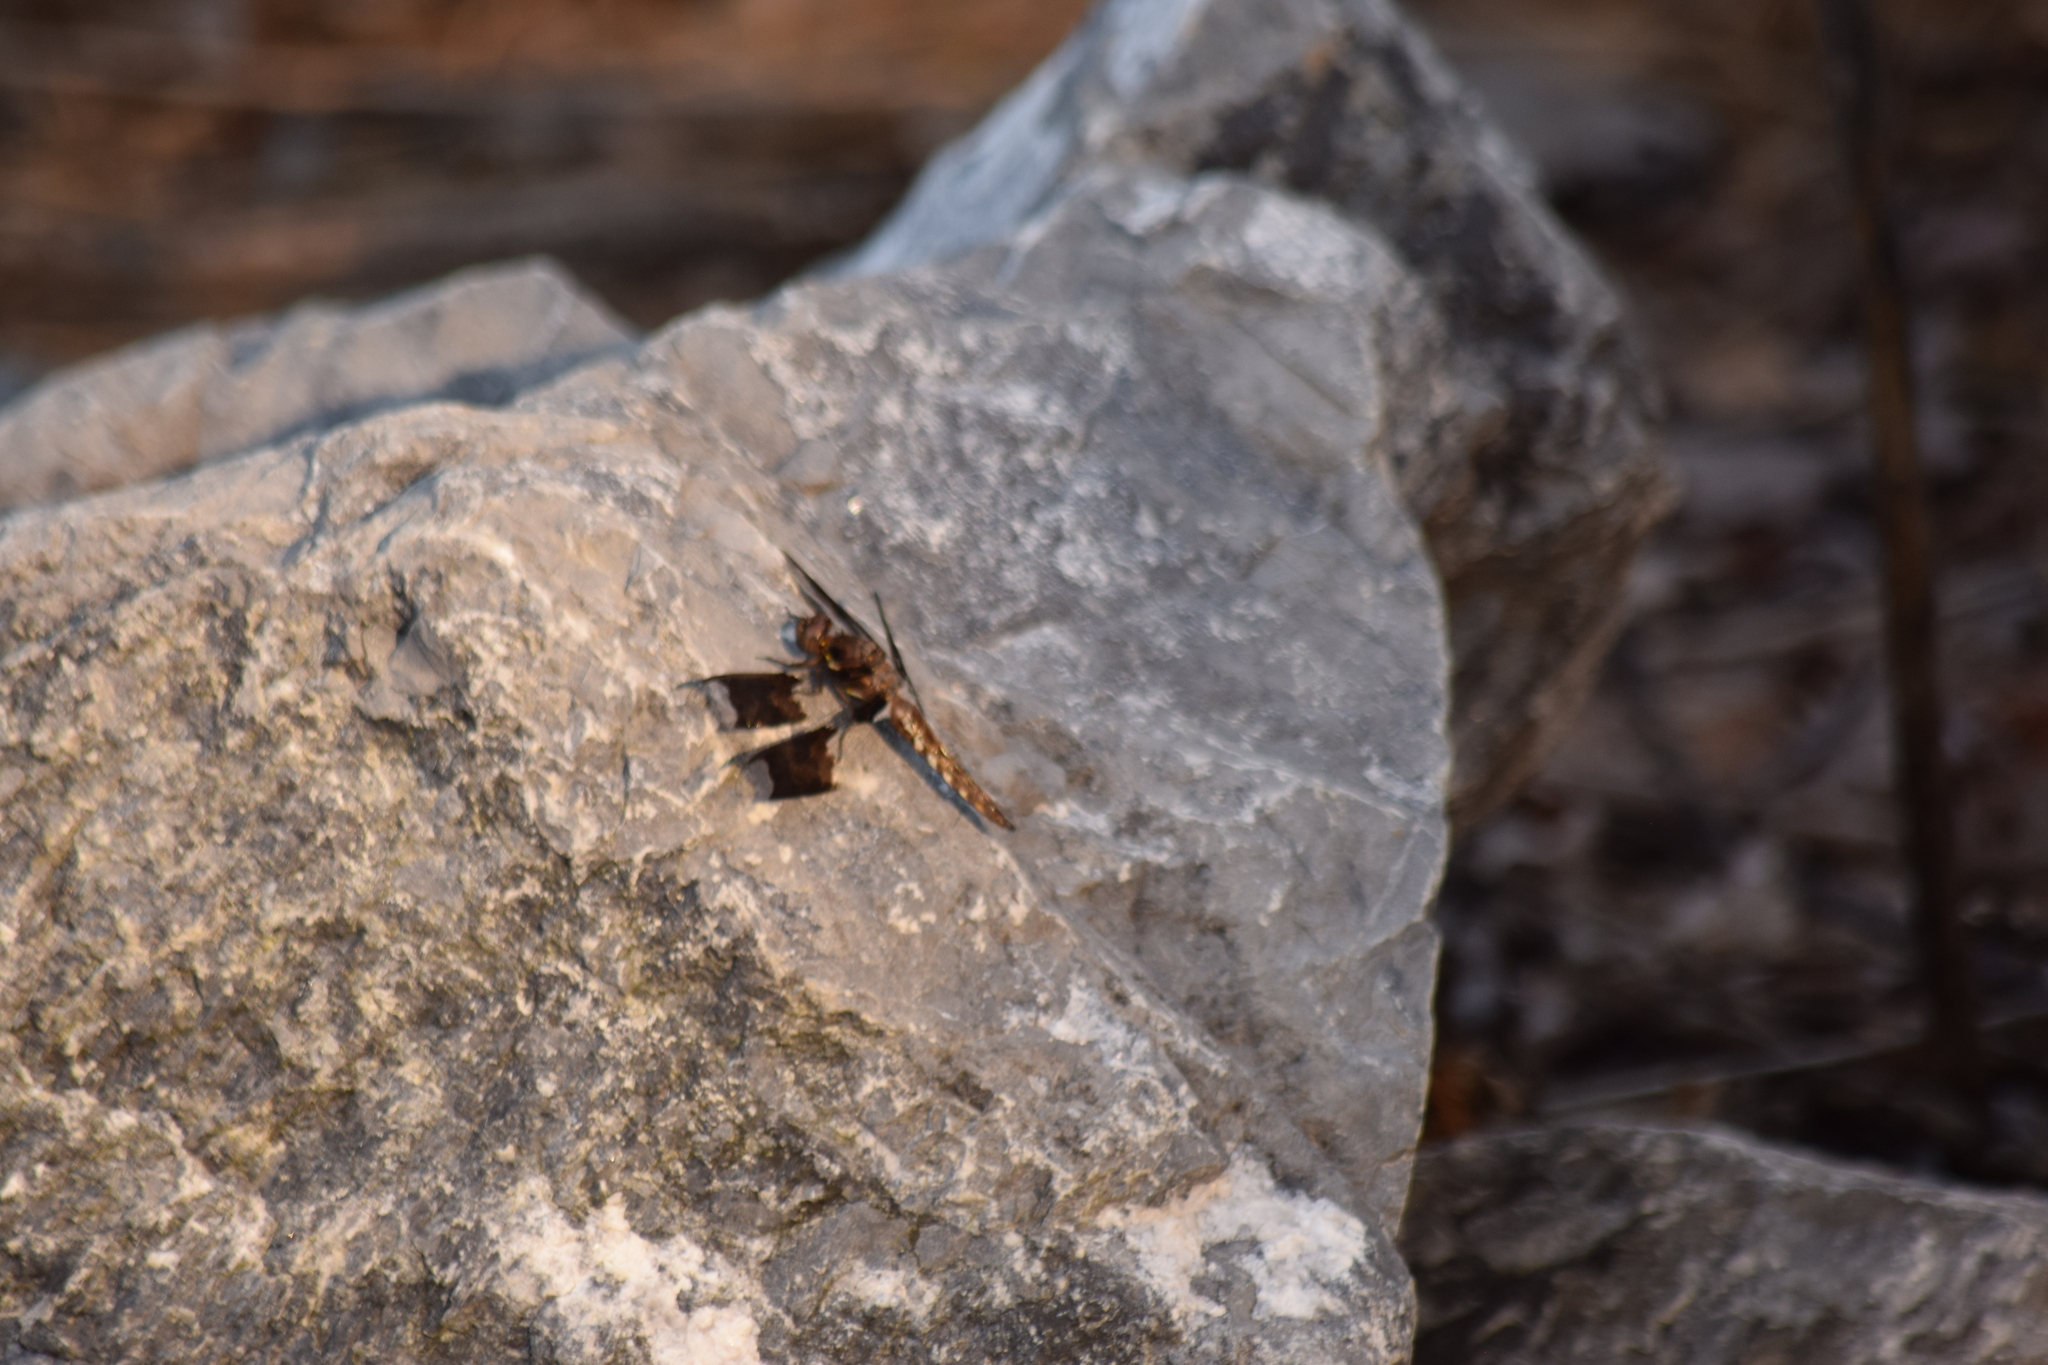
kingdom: Animalia
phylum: Arthropoda
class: Insecta
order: Odonata
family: Libellulidae
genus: Plathemis
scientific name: Plathemis lydia
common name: Common whitetail
